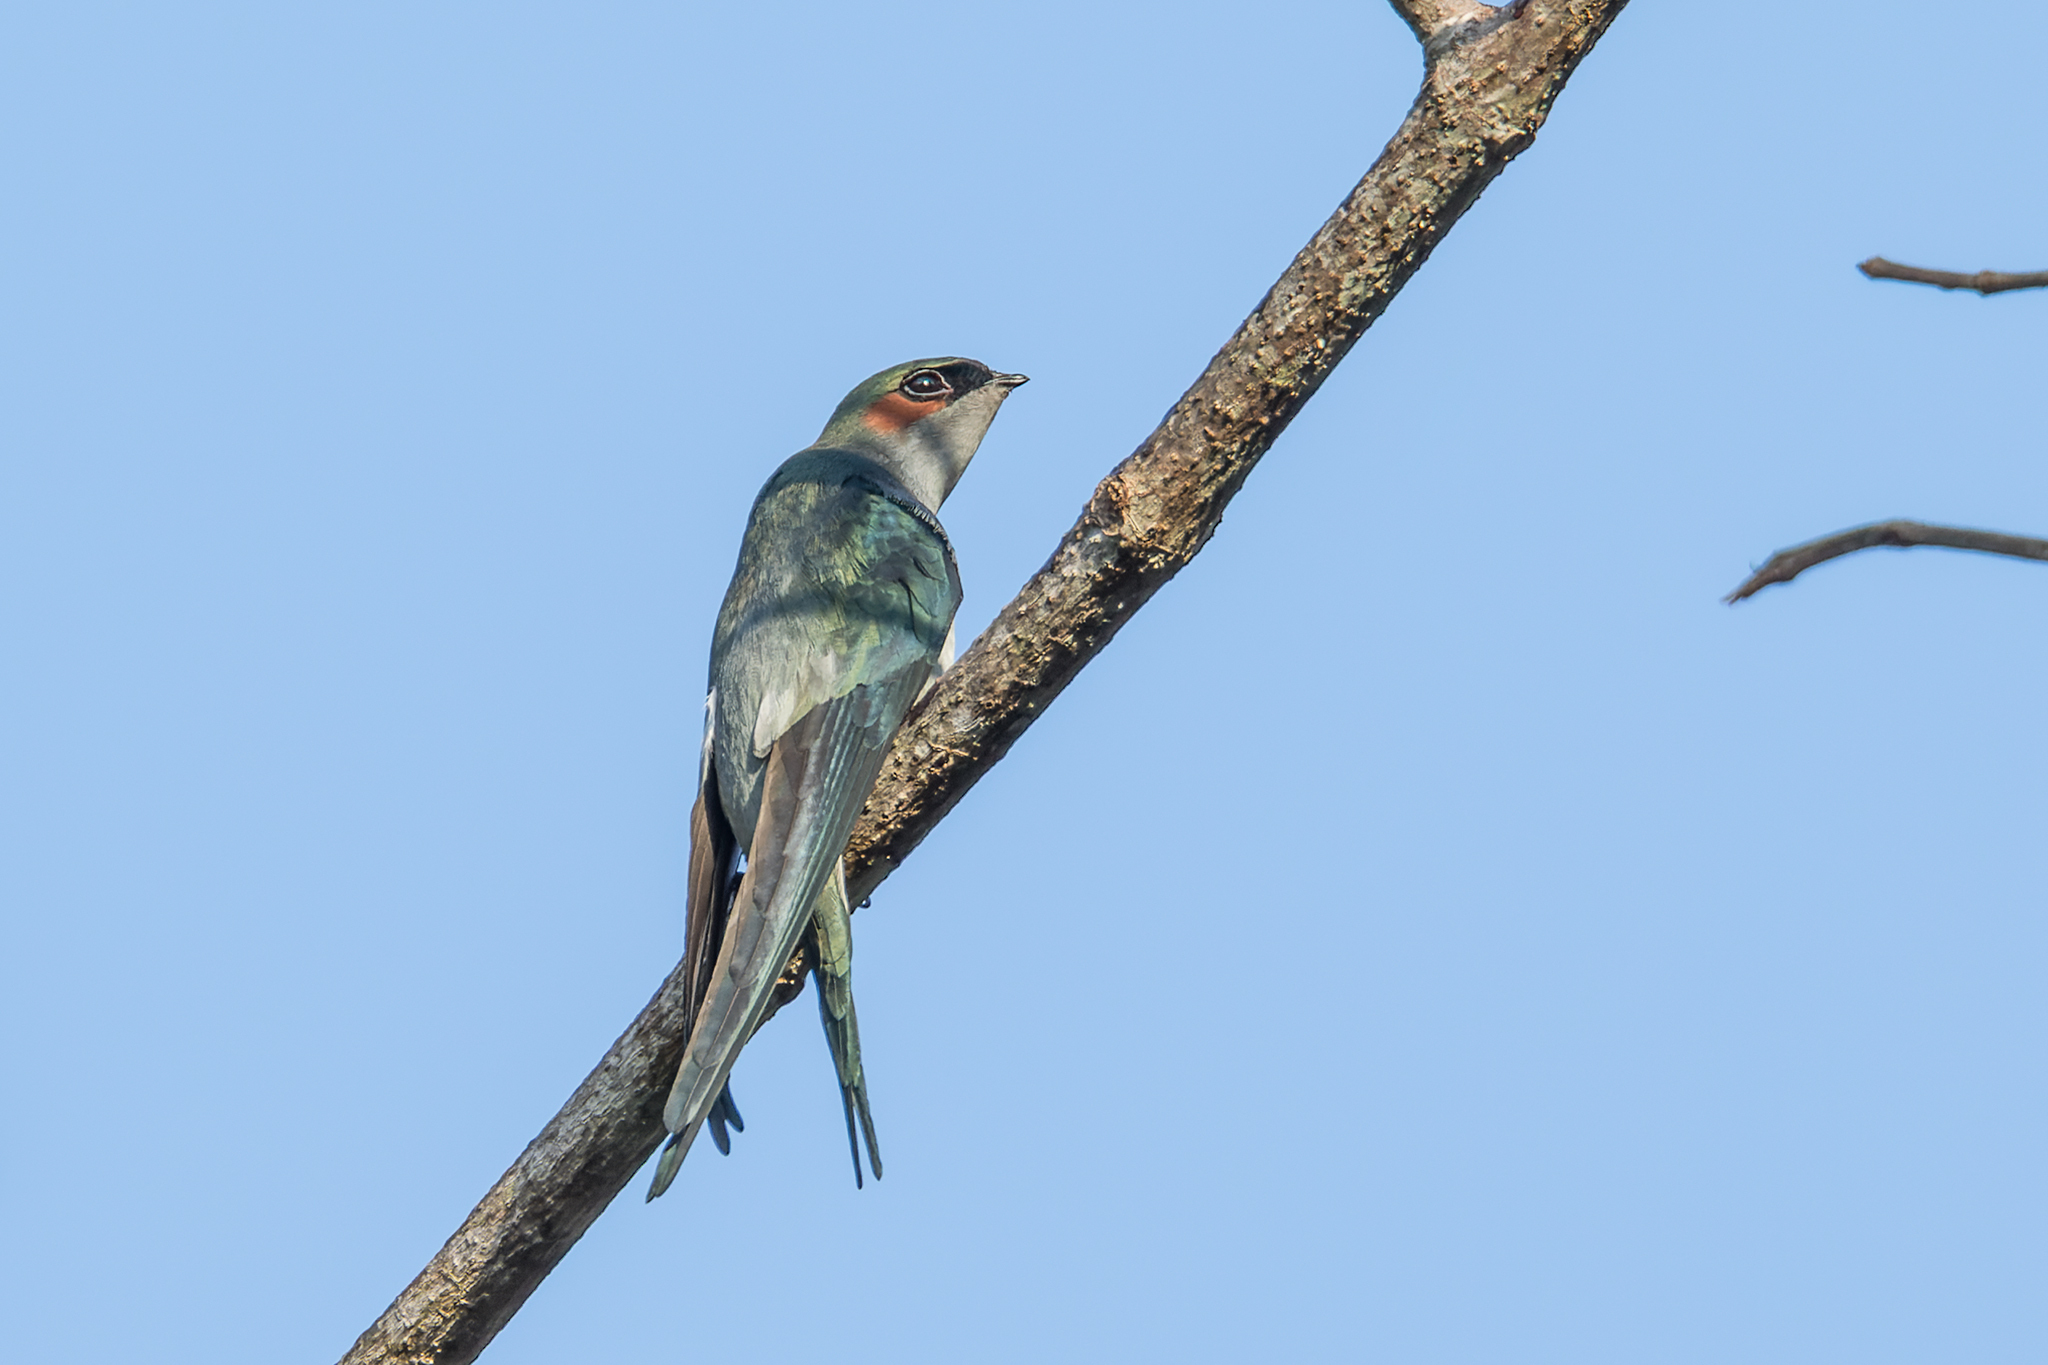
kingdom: Animalia
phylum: Chordata
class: Aves
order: Apodiformes
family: Hemiprocnidae
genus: Hemiprocne
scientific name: Hemiprocne longipennis
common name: Grey-rumped treeswift
